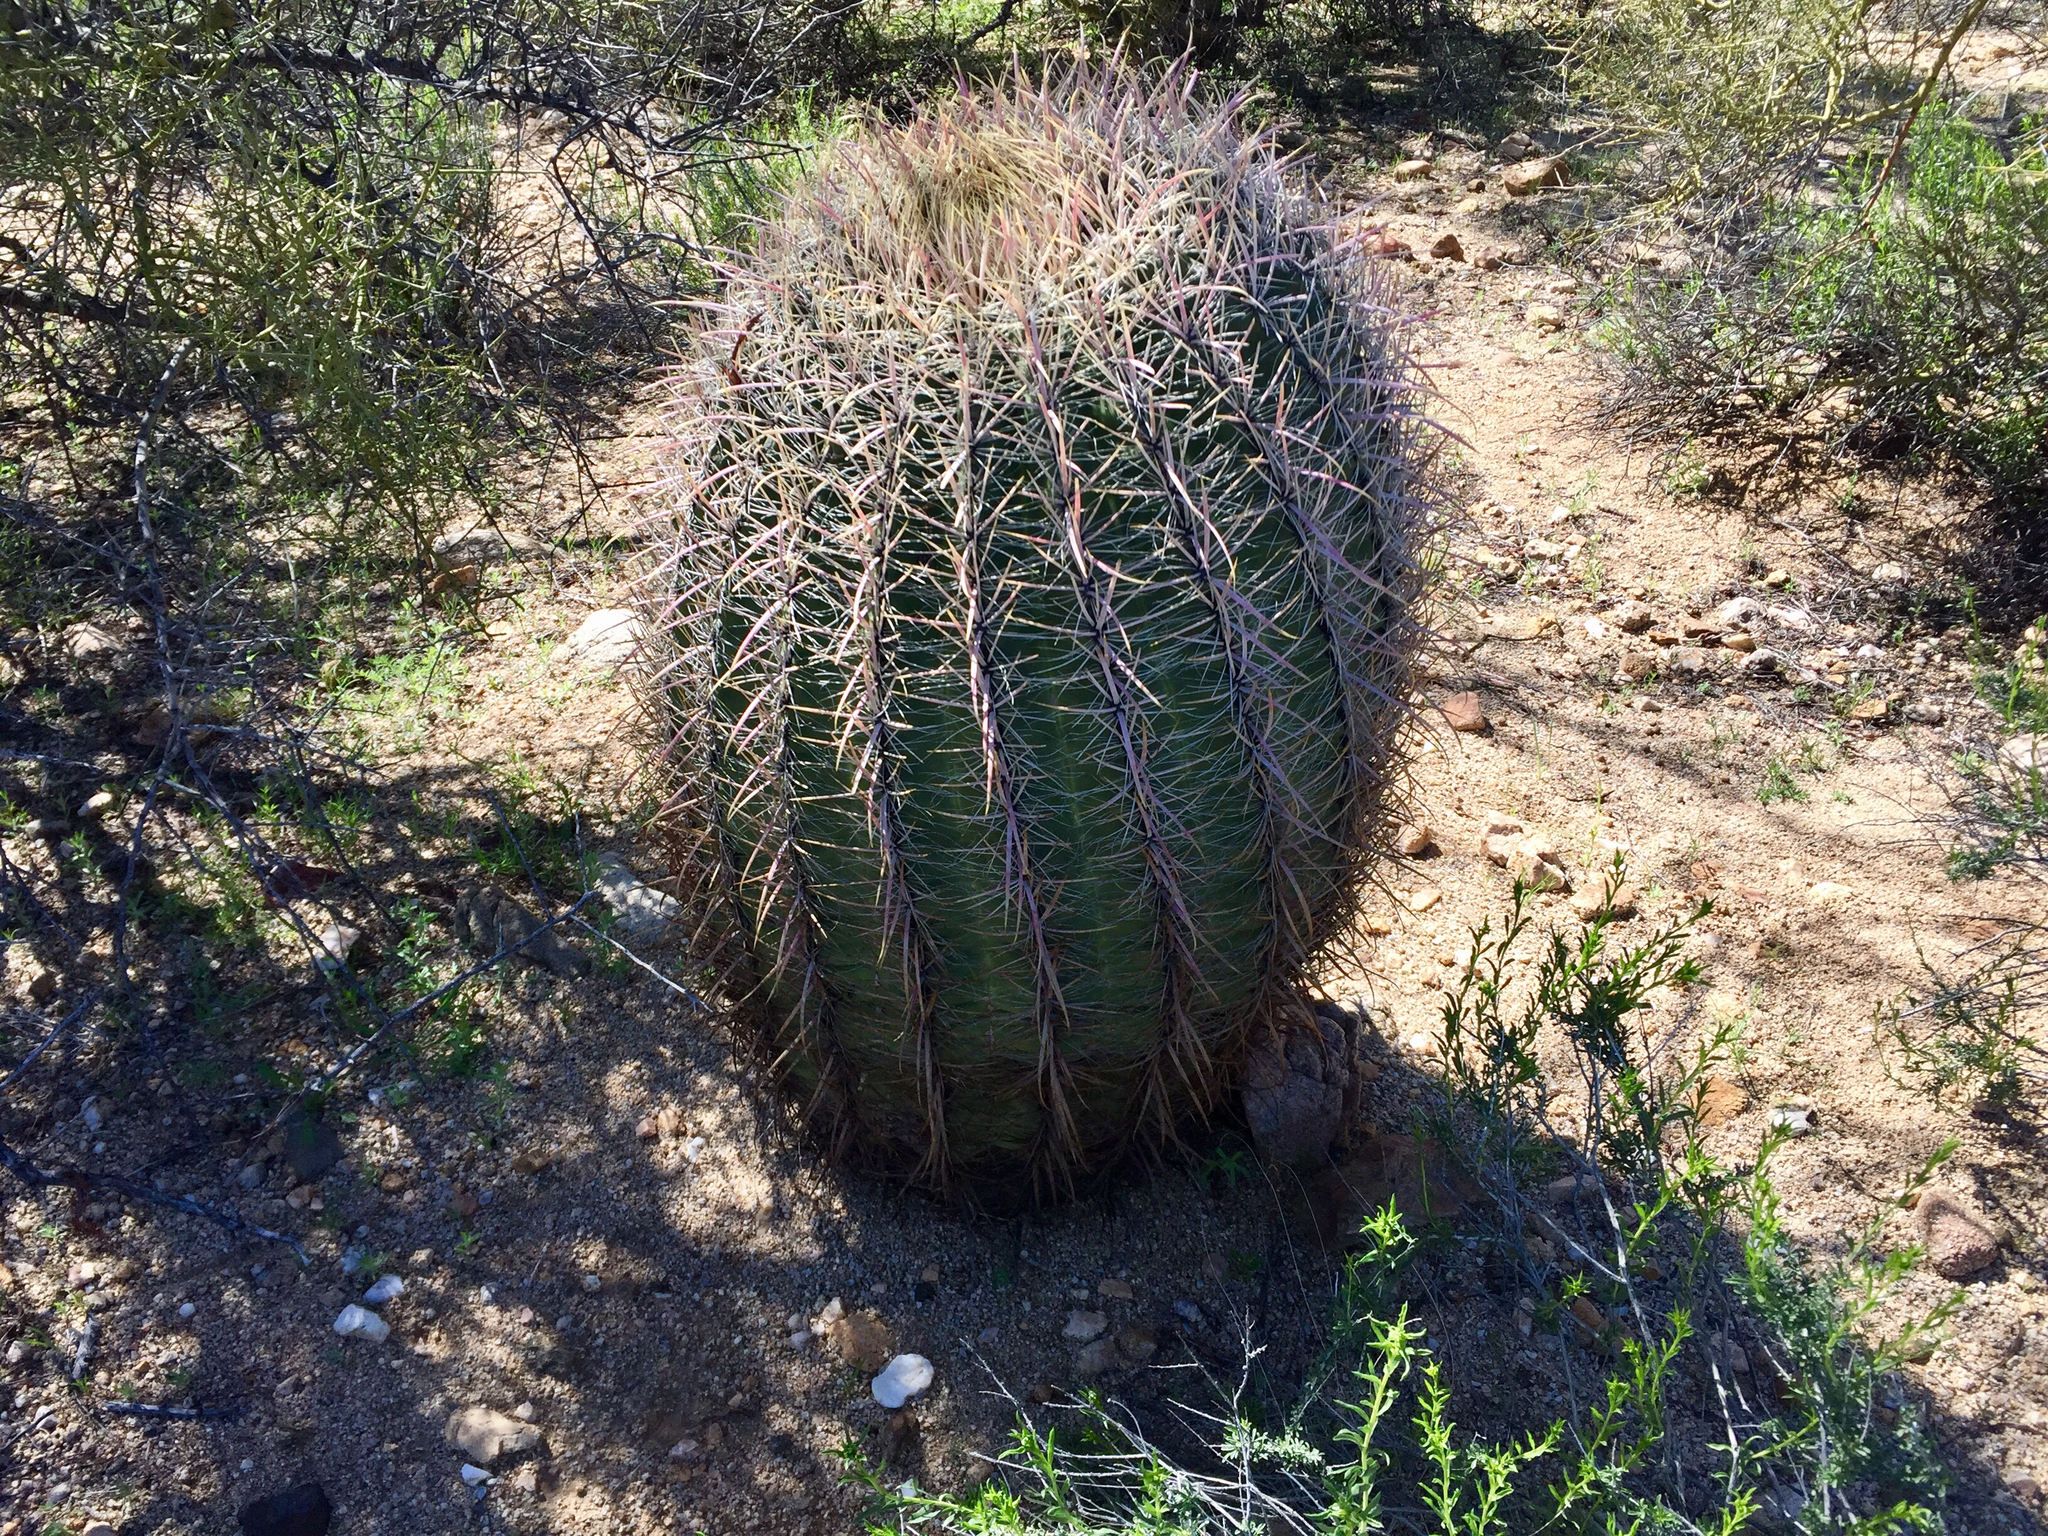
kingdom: Plantae
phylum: Tracheophyta
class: Magnoliopsida
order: Caryophyllales
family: Cactaceae
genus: Ferocactus
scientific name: Ferocactus cylindraceus
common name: California barrel cactus
